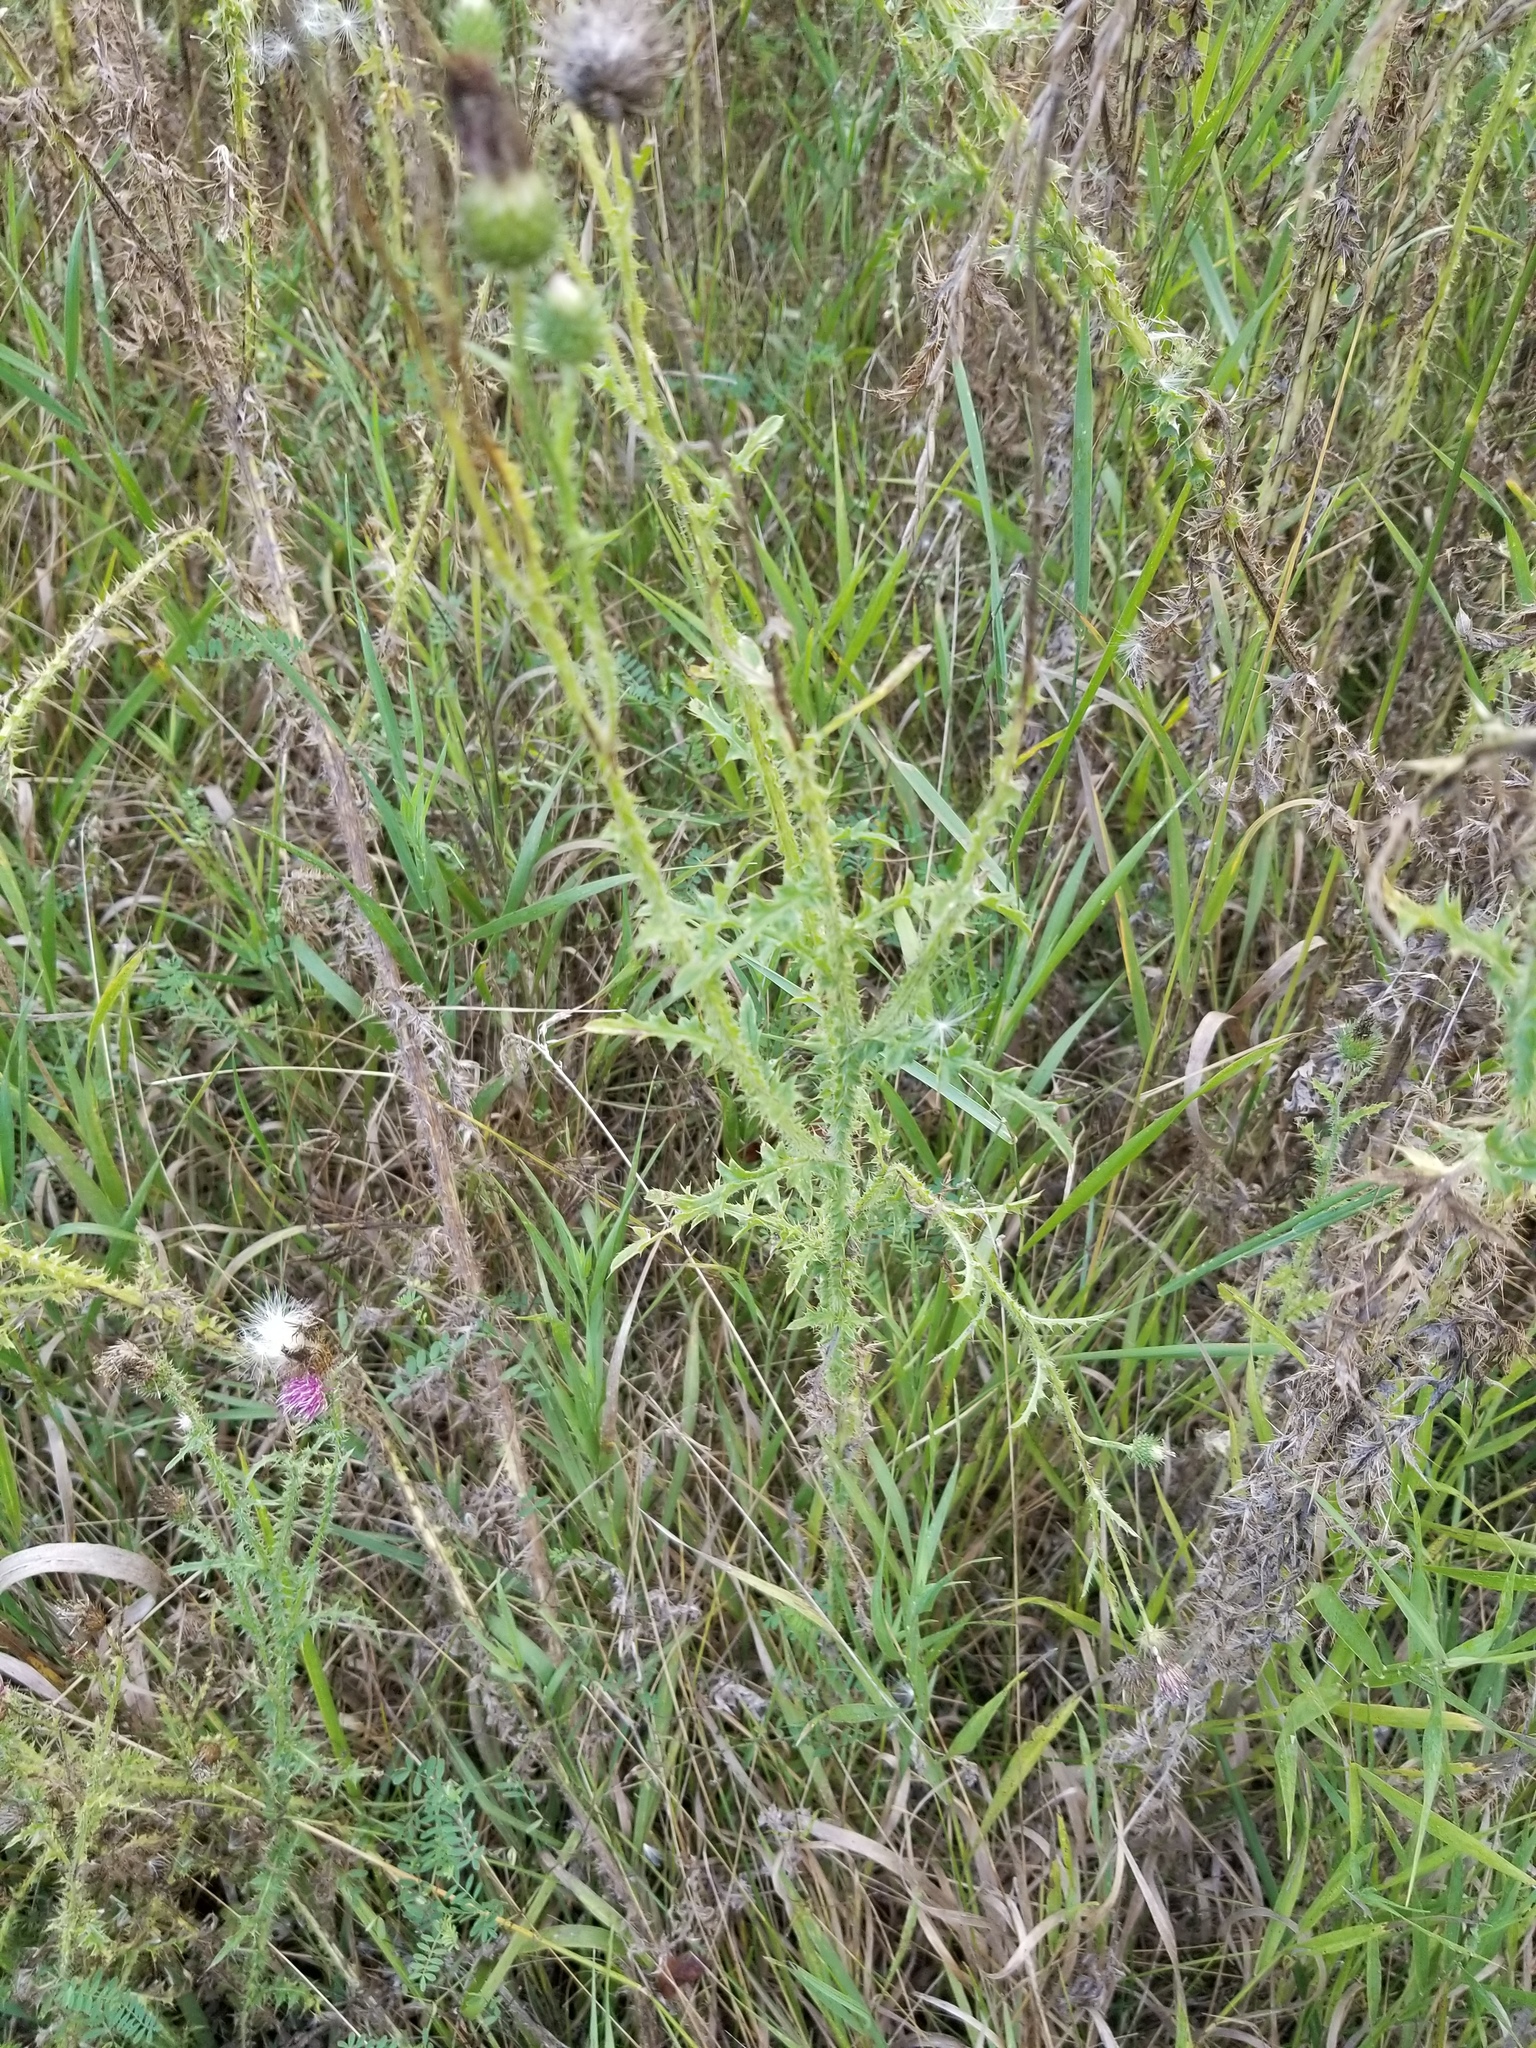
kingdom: Plantae
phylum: Tracheophyta
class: Magnoliopsida
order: Asterales
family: Asteraceae
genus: Carduus
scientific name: Carduus acanthoides
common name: Plumeless thistle
